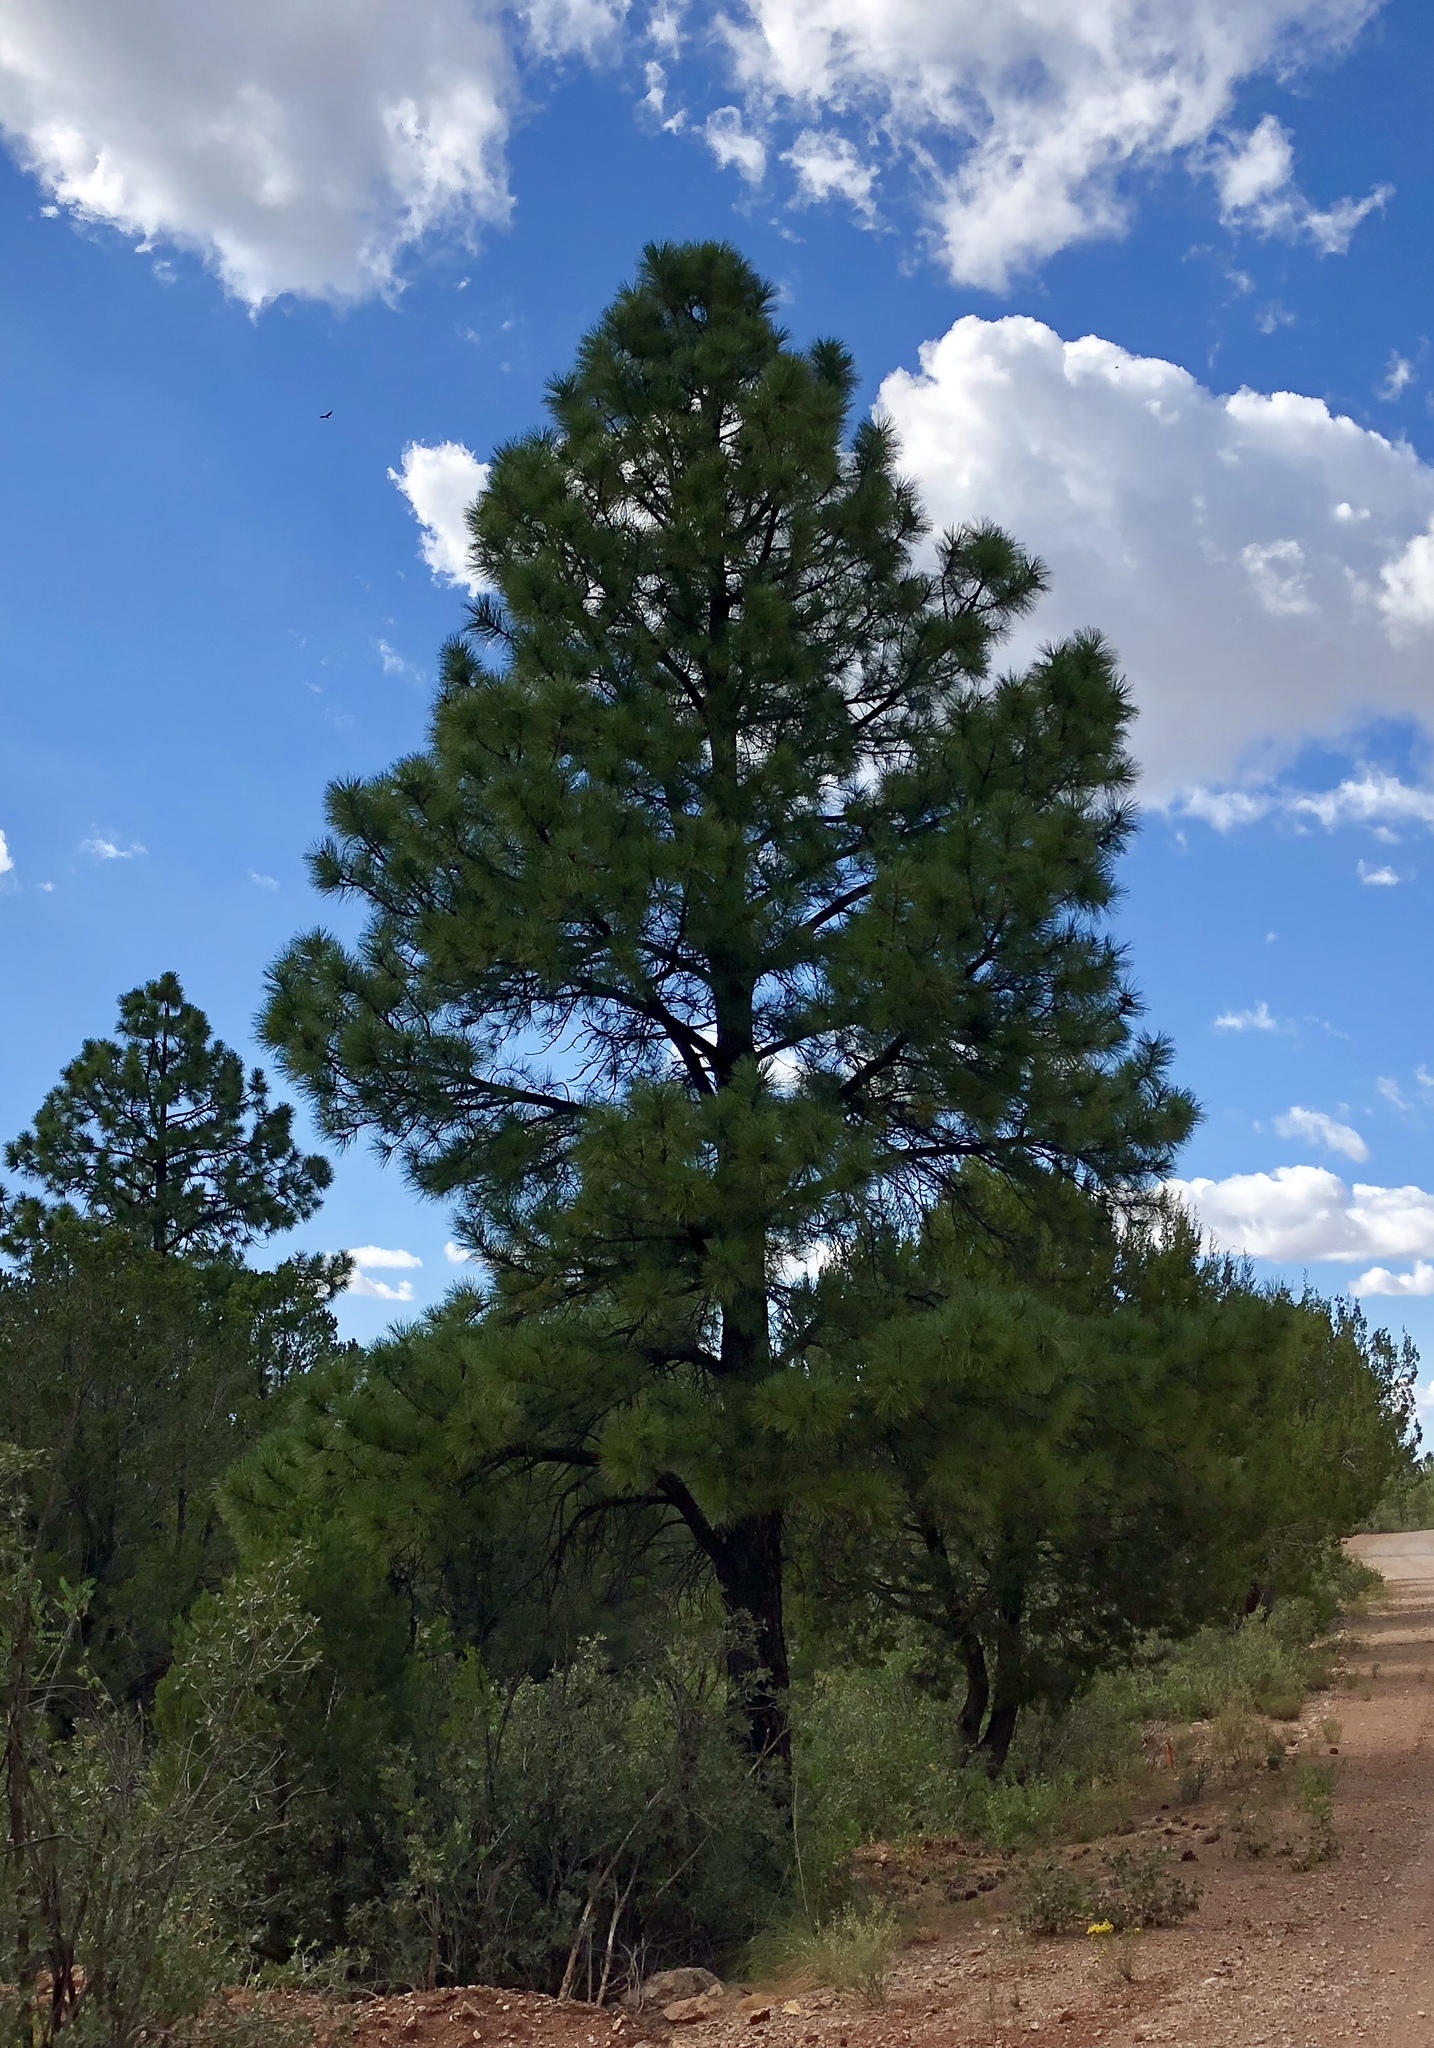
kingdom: Plantae
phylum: Tracheophyta
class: Pinopsida
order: Pinales
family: Pinaceae
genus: Pinus
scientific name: Pinus ponderosa
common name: Western yellow-pine
